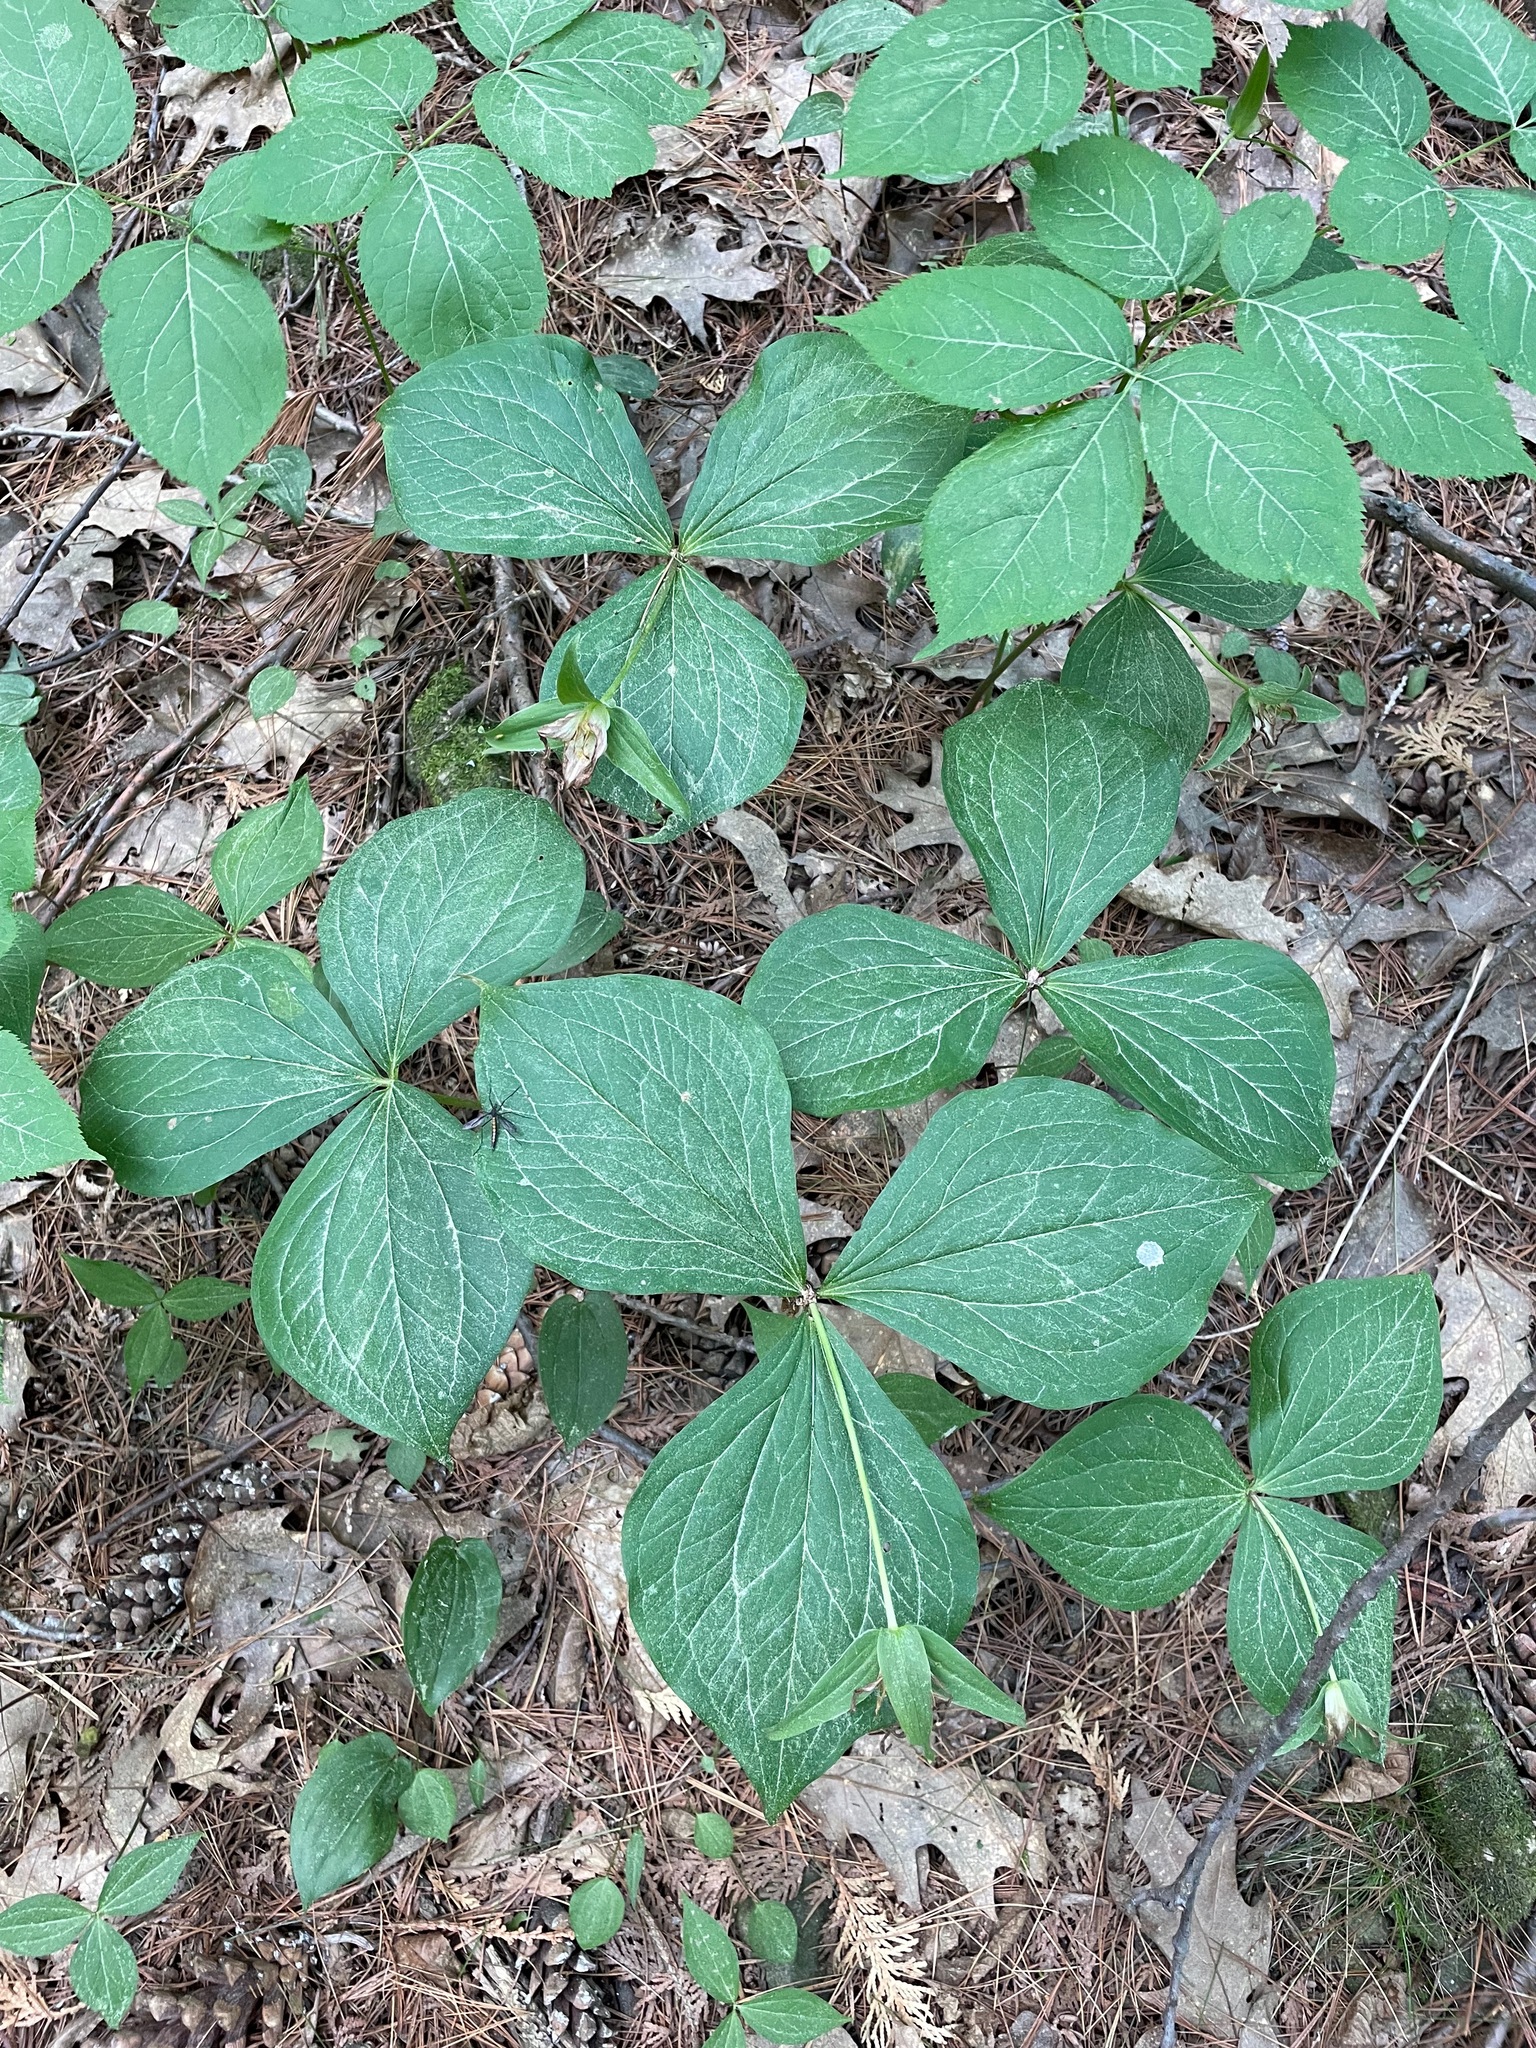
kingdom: Plantae
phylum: Tracheophyta
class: Liliopsida
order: Liliales
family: Melanthiaceae
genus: Trillium
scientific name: Trillium grandiflorum
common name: Great white trillium
